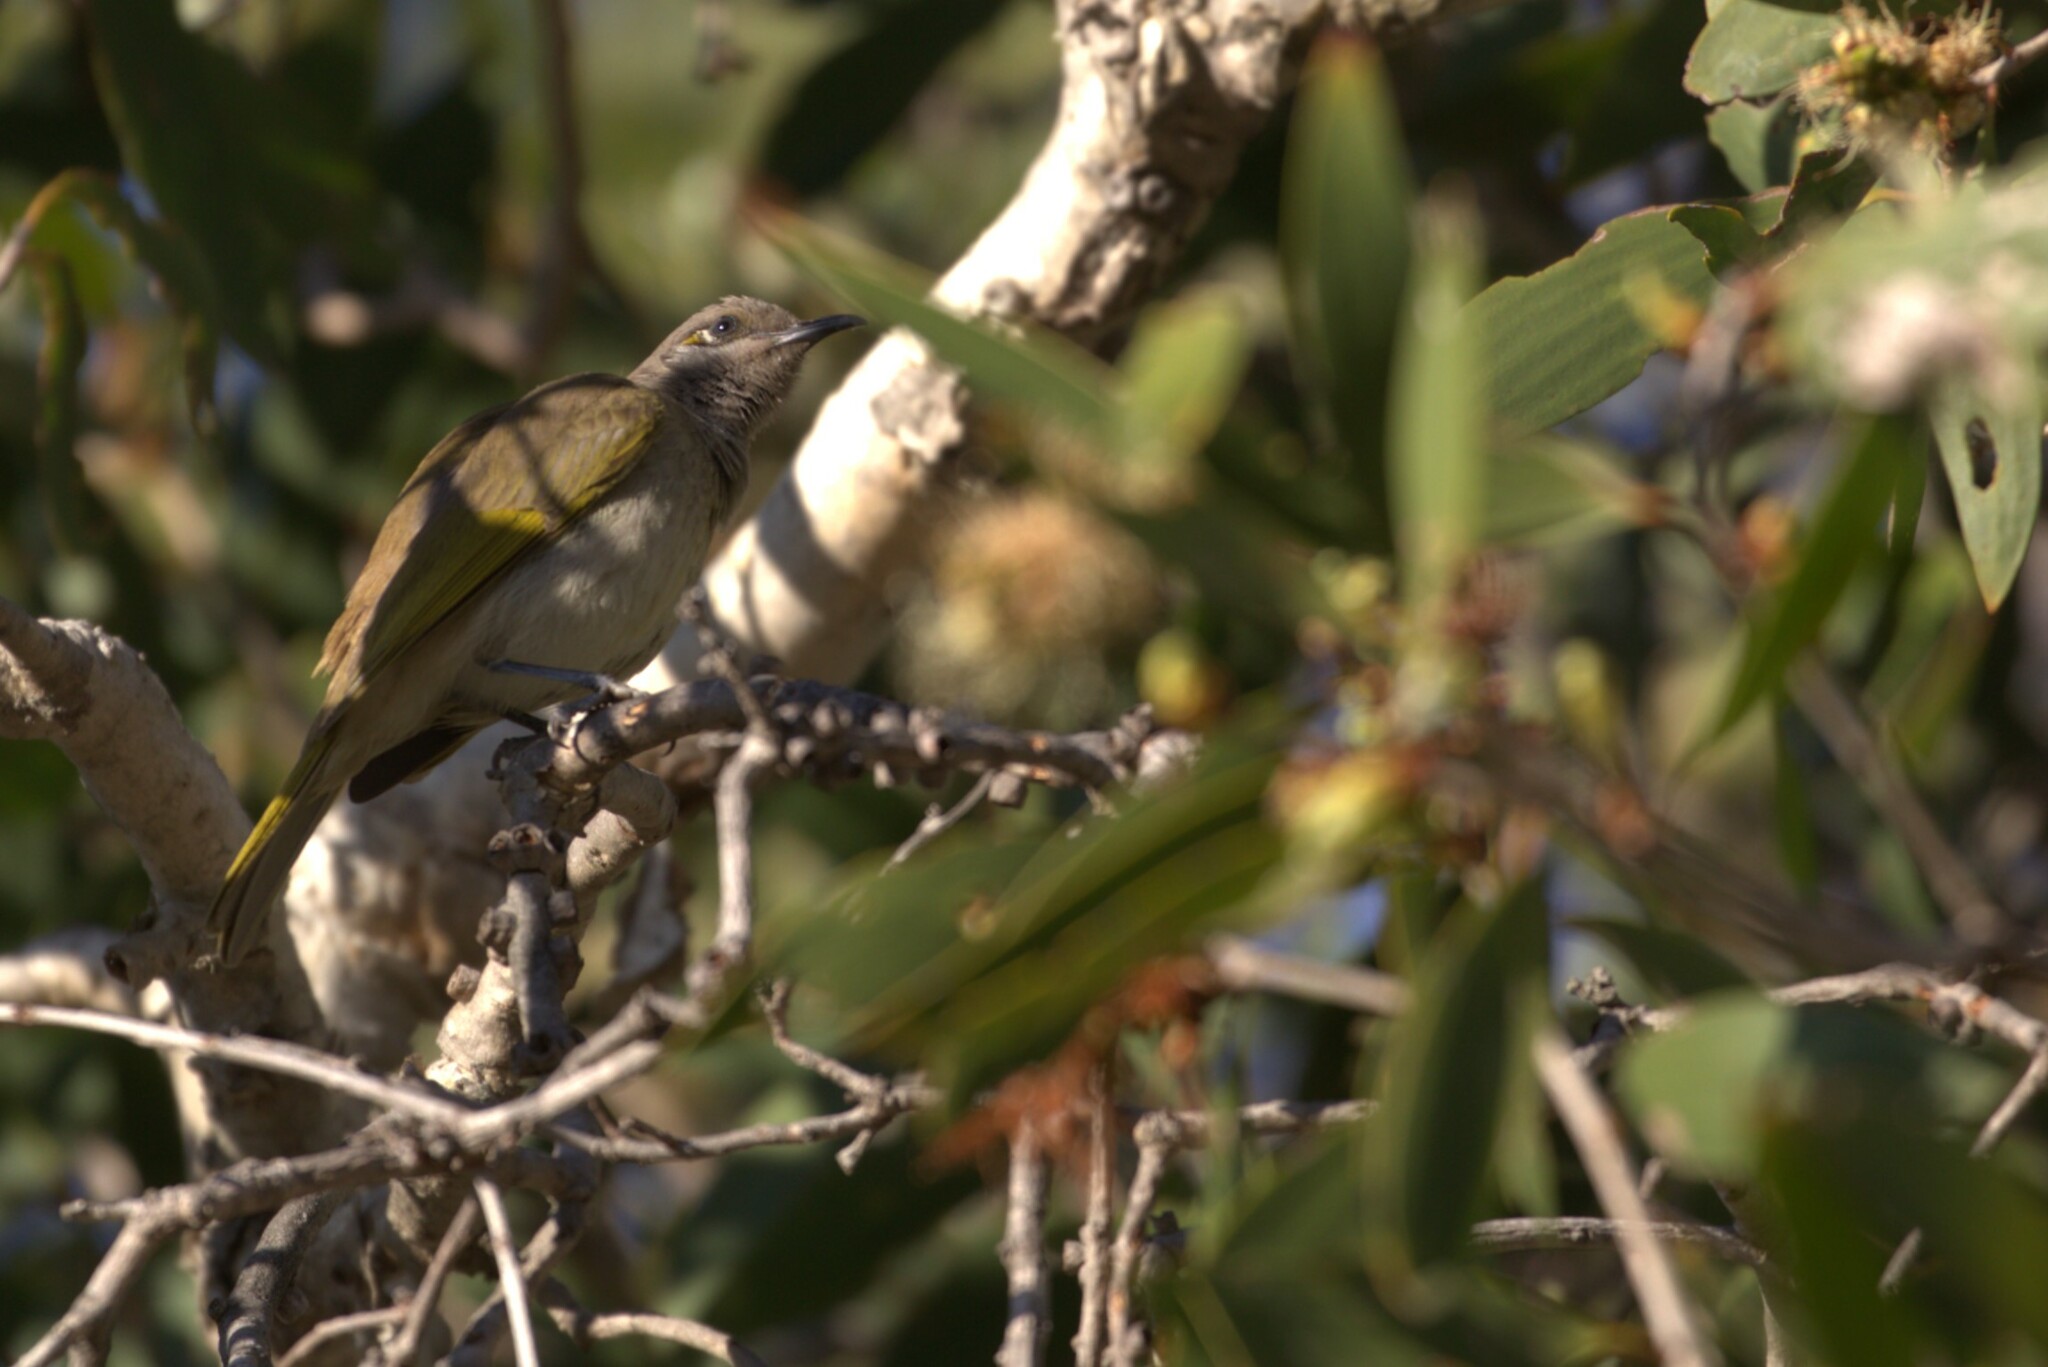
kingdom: Animalia
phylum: Chordata
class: Aves
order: Passeriformes
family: Meliphagidae
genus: Lichmera
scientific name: Lichmera indistincta
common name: Brown honeyeater
